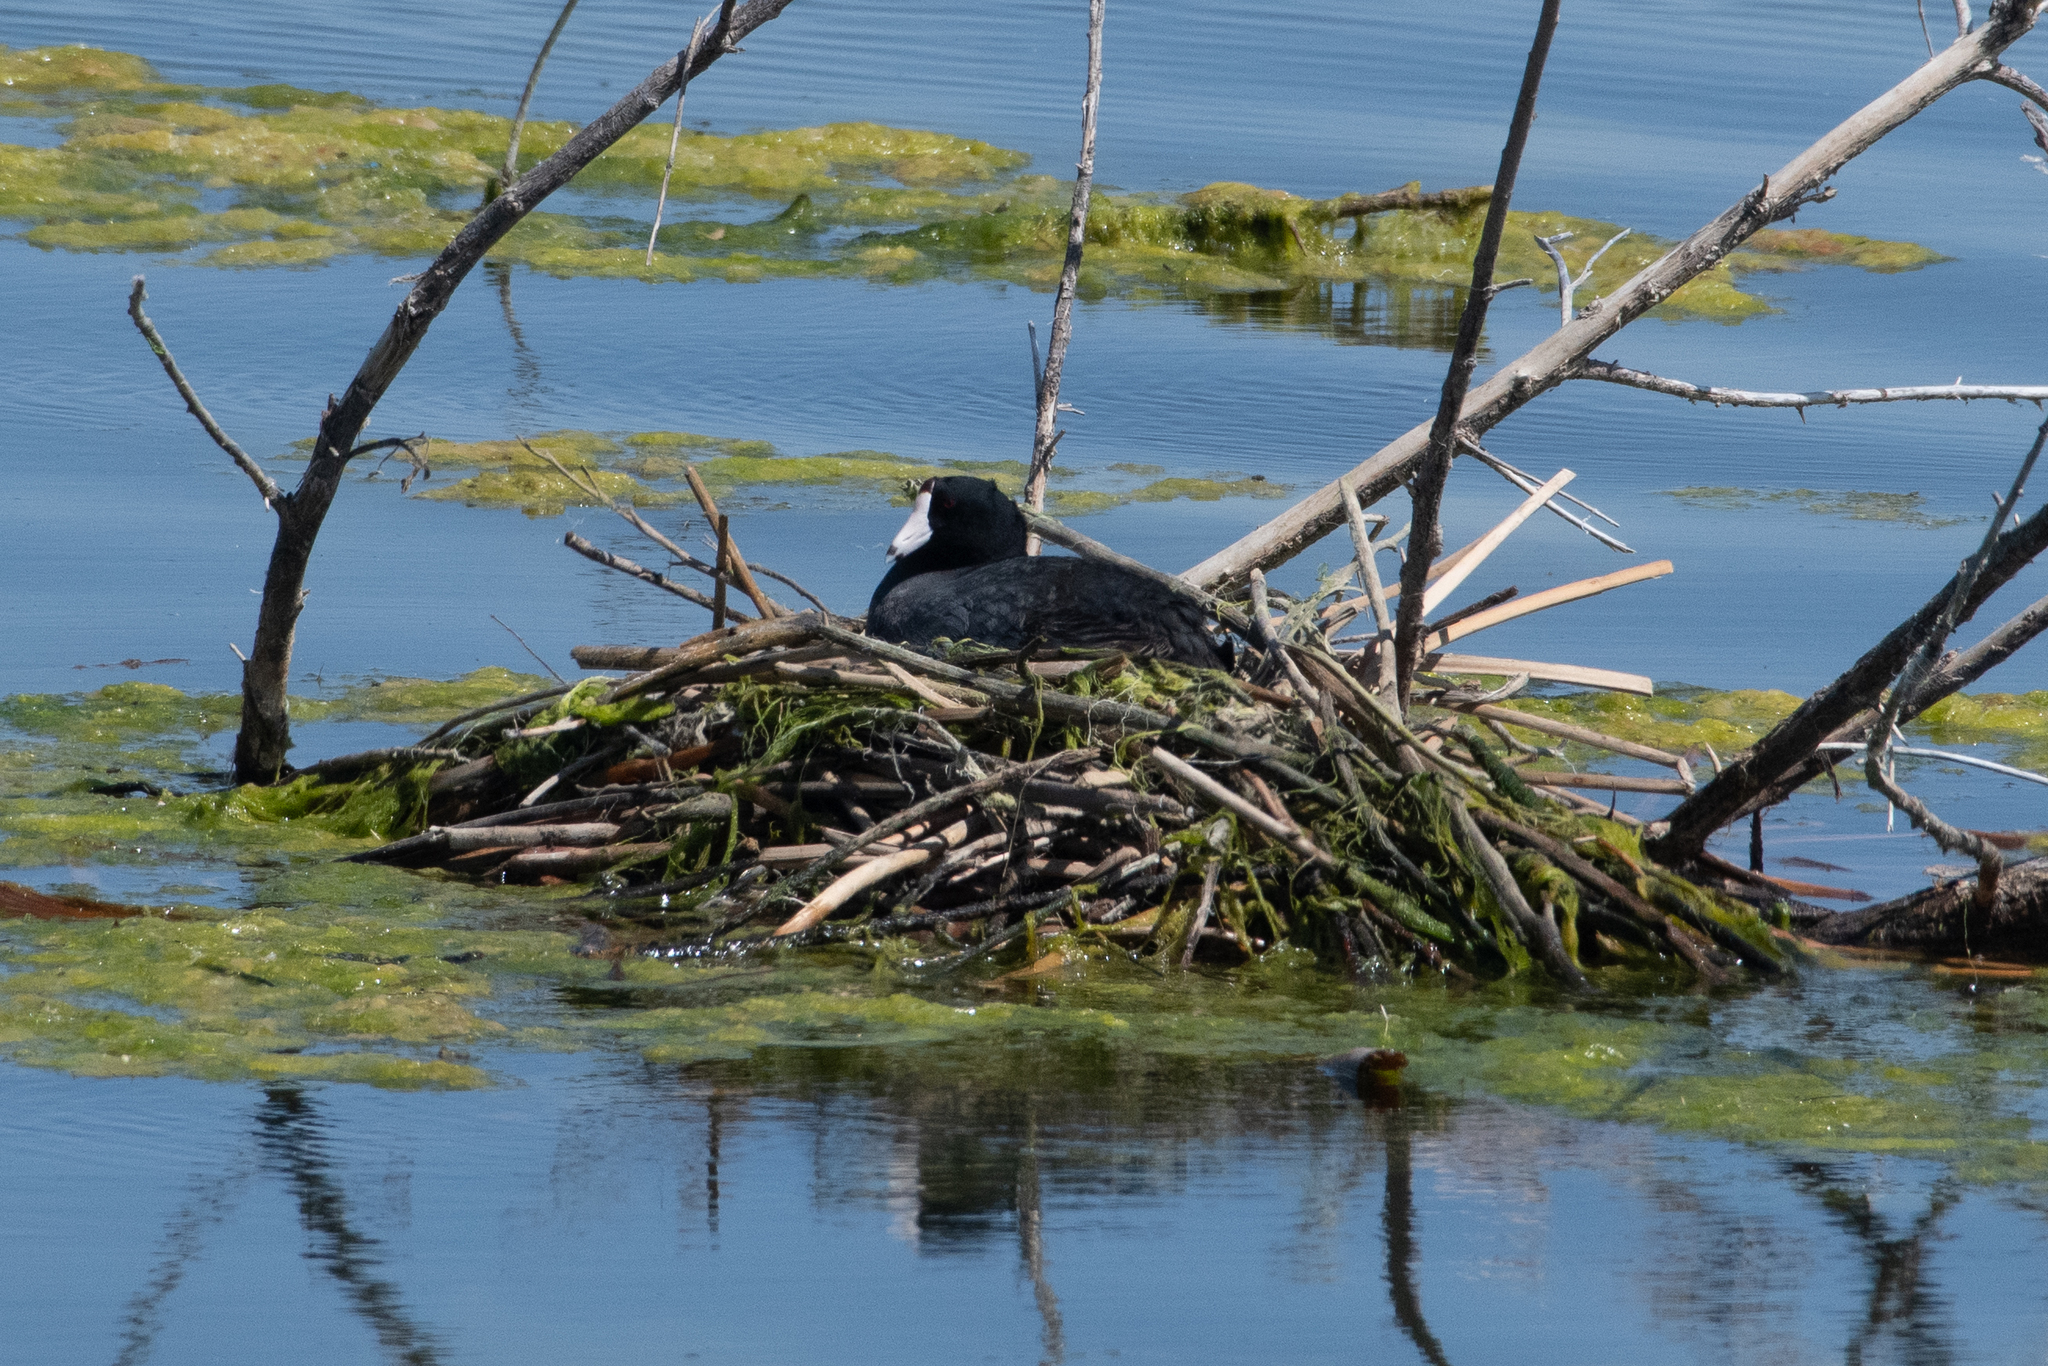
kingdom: Animalia
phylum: Chordata
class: Aves
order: Gruiformes
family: Rallidae
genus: Fulica
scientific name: Fulica americana
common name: American coot
